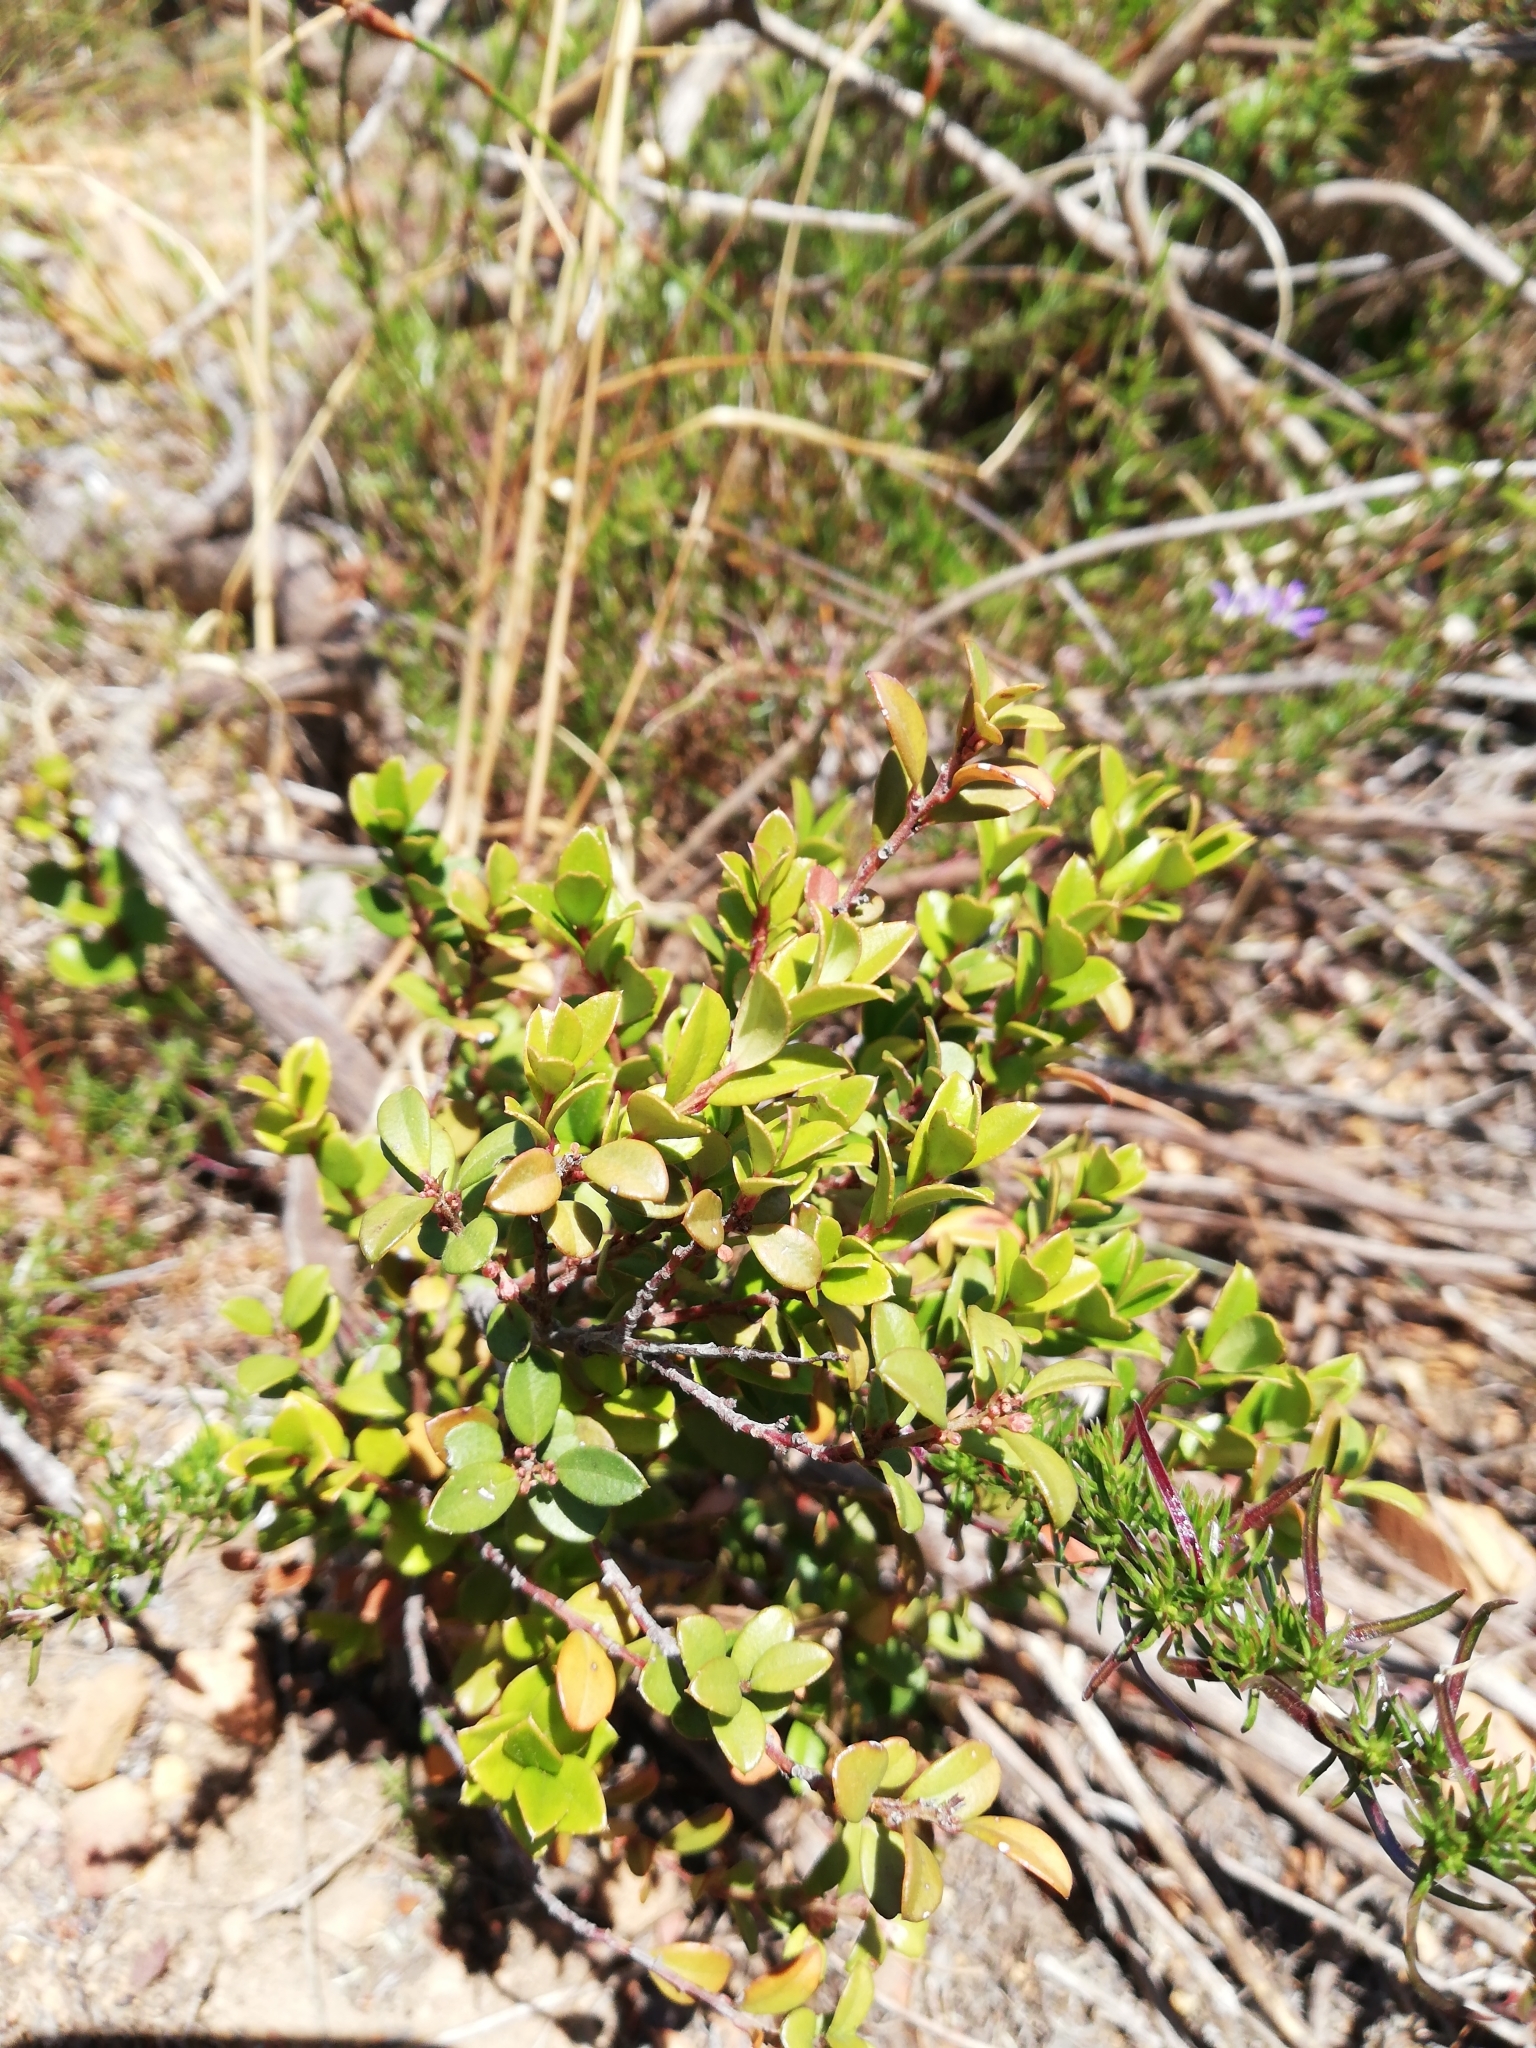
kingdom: Plantae
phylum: Tracheophyta
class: Magnoliopsida
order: Ericales
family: Primulaceae
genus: Myrsine
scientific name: Myrsine africana
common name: African-boxwood
